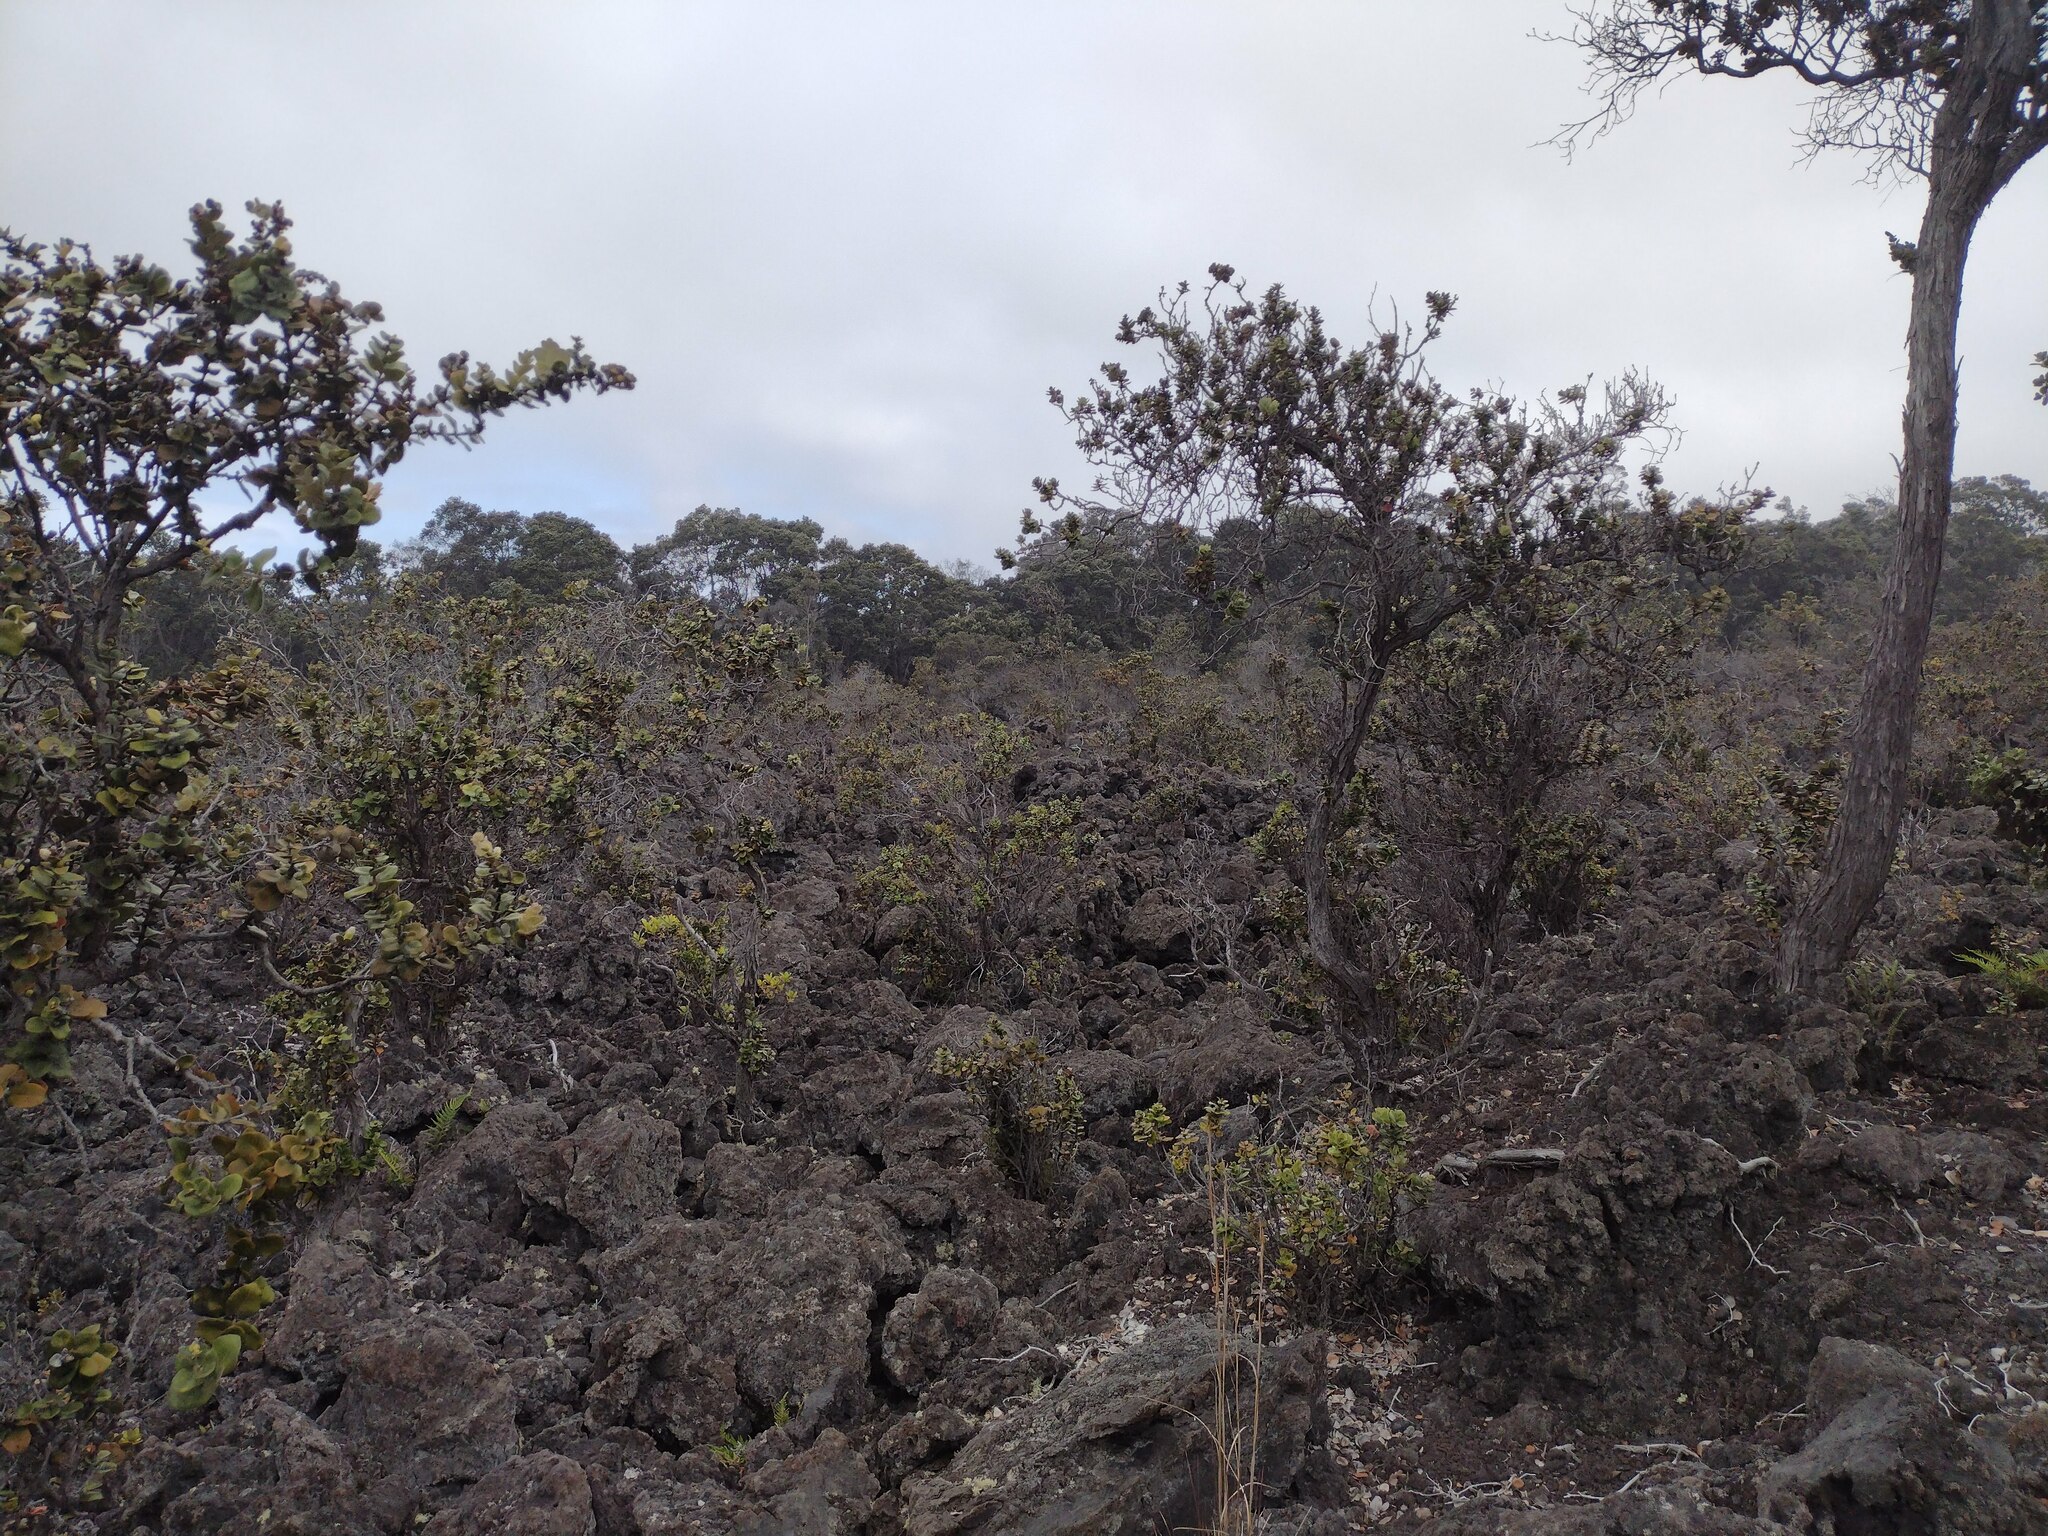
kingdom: Plantae
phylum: Tracheophyta
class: Magnoliopsida
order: Myrtales
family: Myrtaceae
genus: Metrosideros
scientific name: Metrosideros polymorpha
